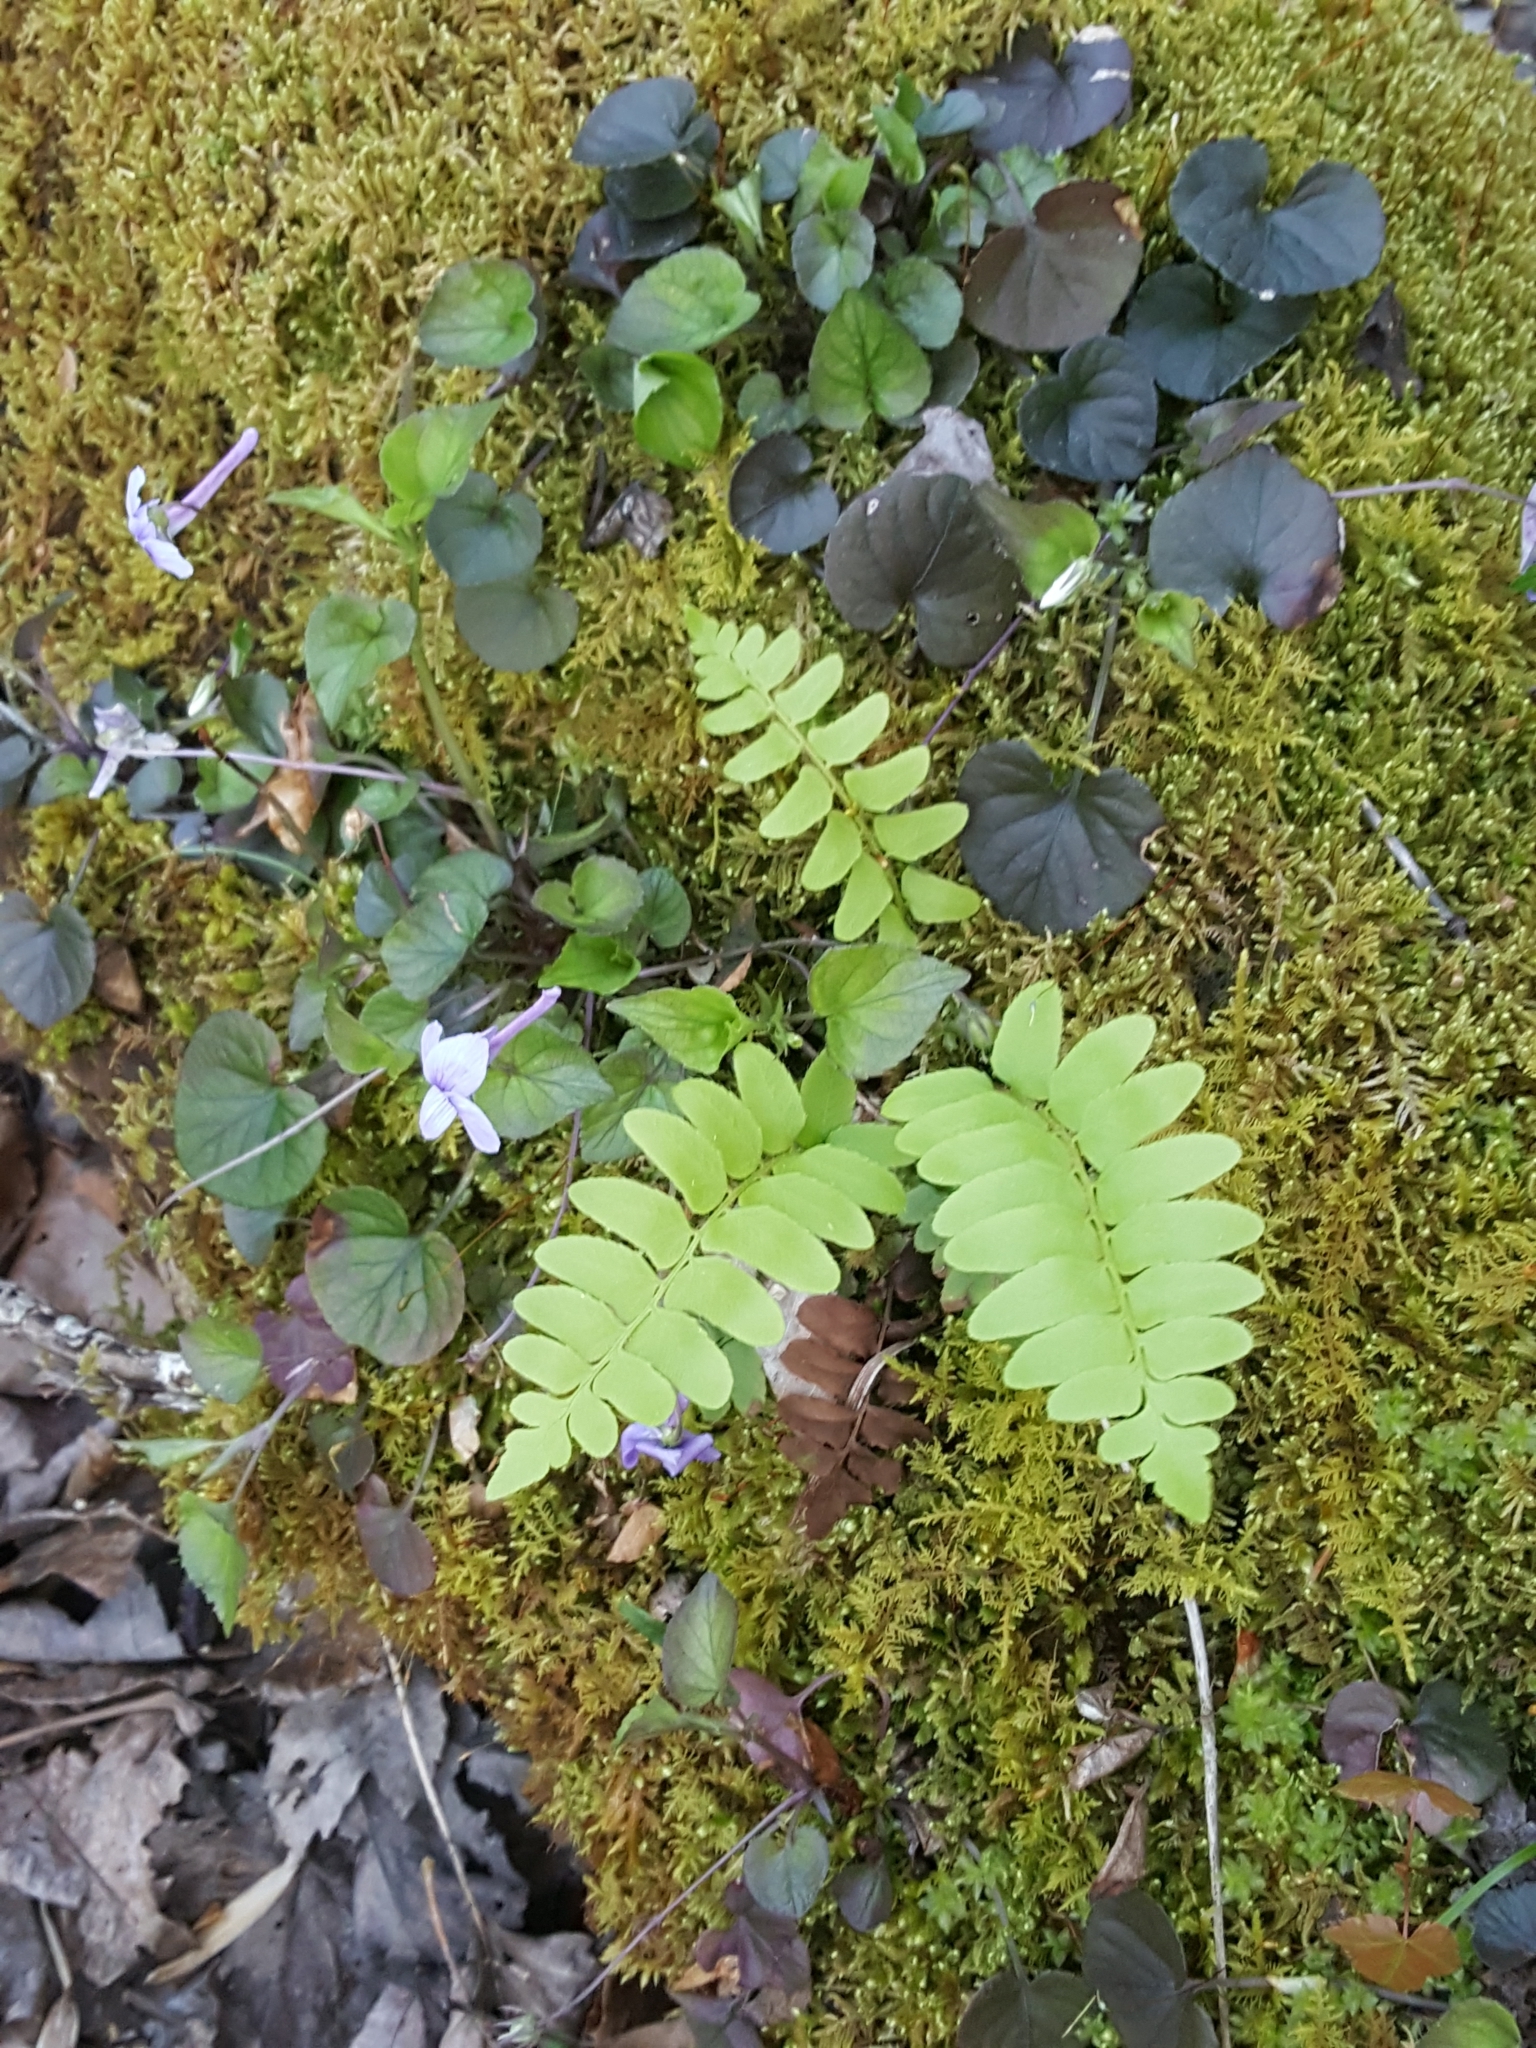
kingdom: Plantae
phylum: Tracheophyta
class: Polypodiopsida
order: Polypodiales
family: Dryopteridaceae
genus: Polystichum
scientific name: Polystichum acrostichoides
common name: Christmas fern
